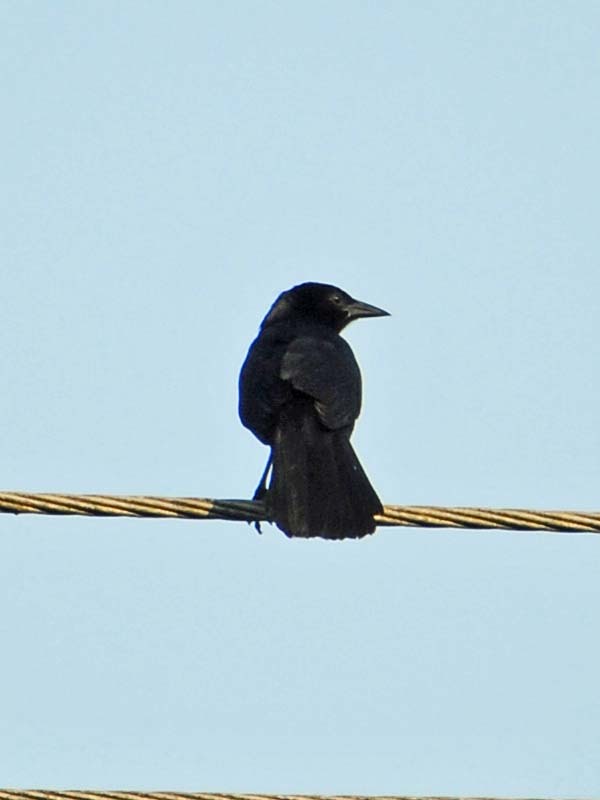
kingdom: Animalia
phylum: Chordata
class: Aves
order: Passeriformes
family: Icteridae
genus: Dives
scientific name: Dives dives
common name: Melodious blackbird
